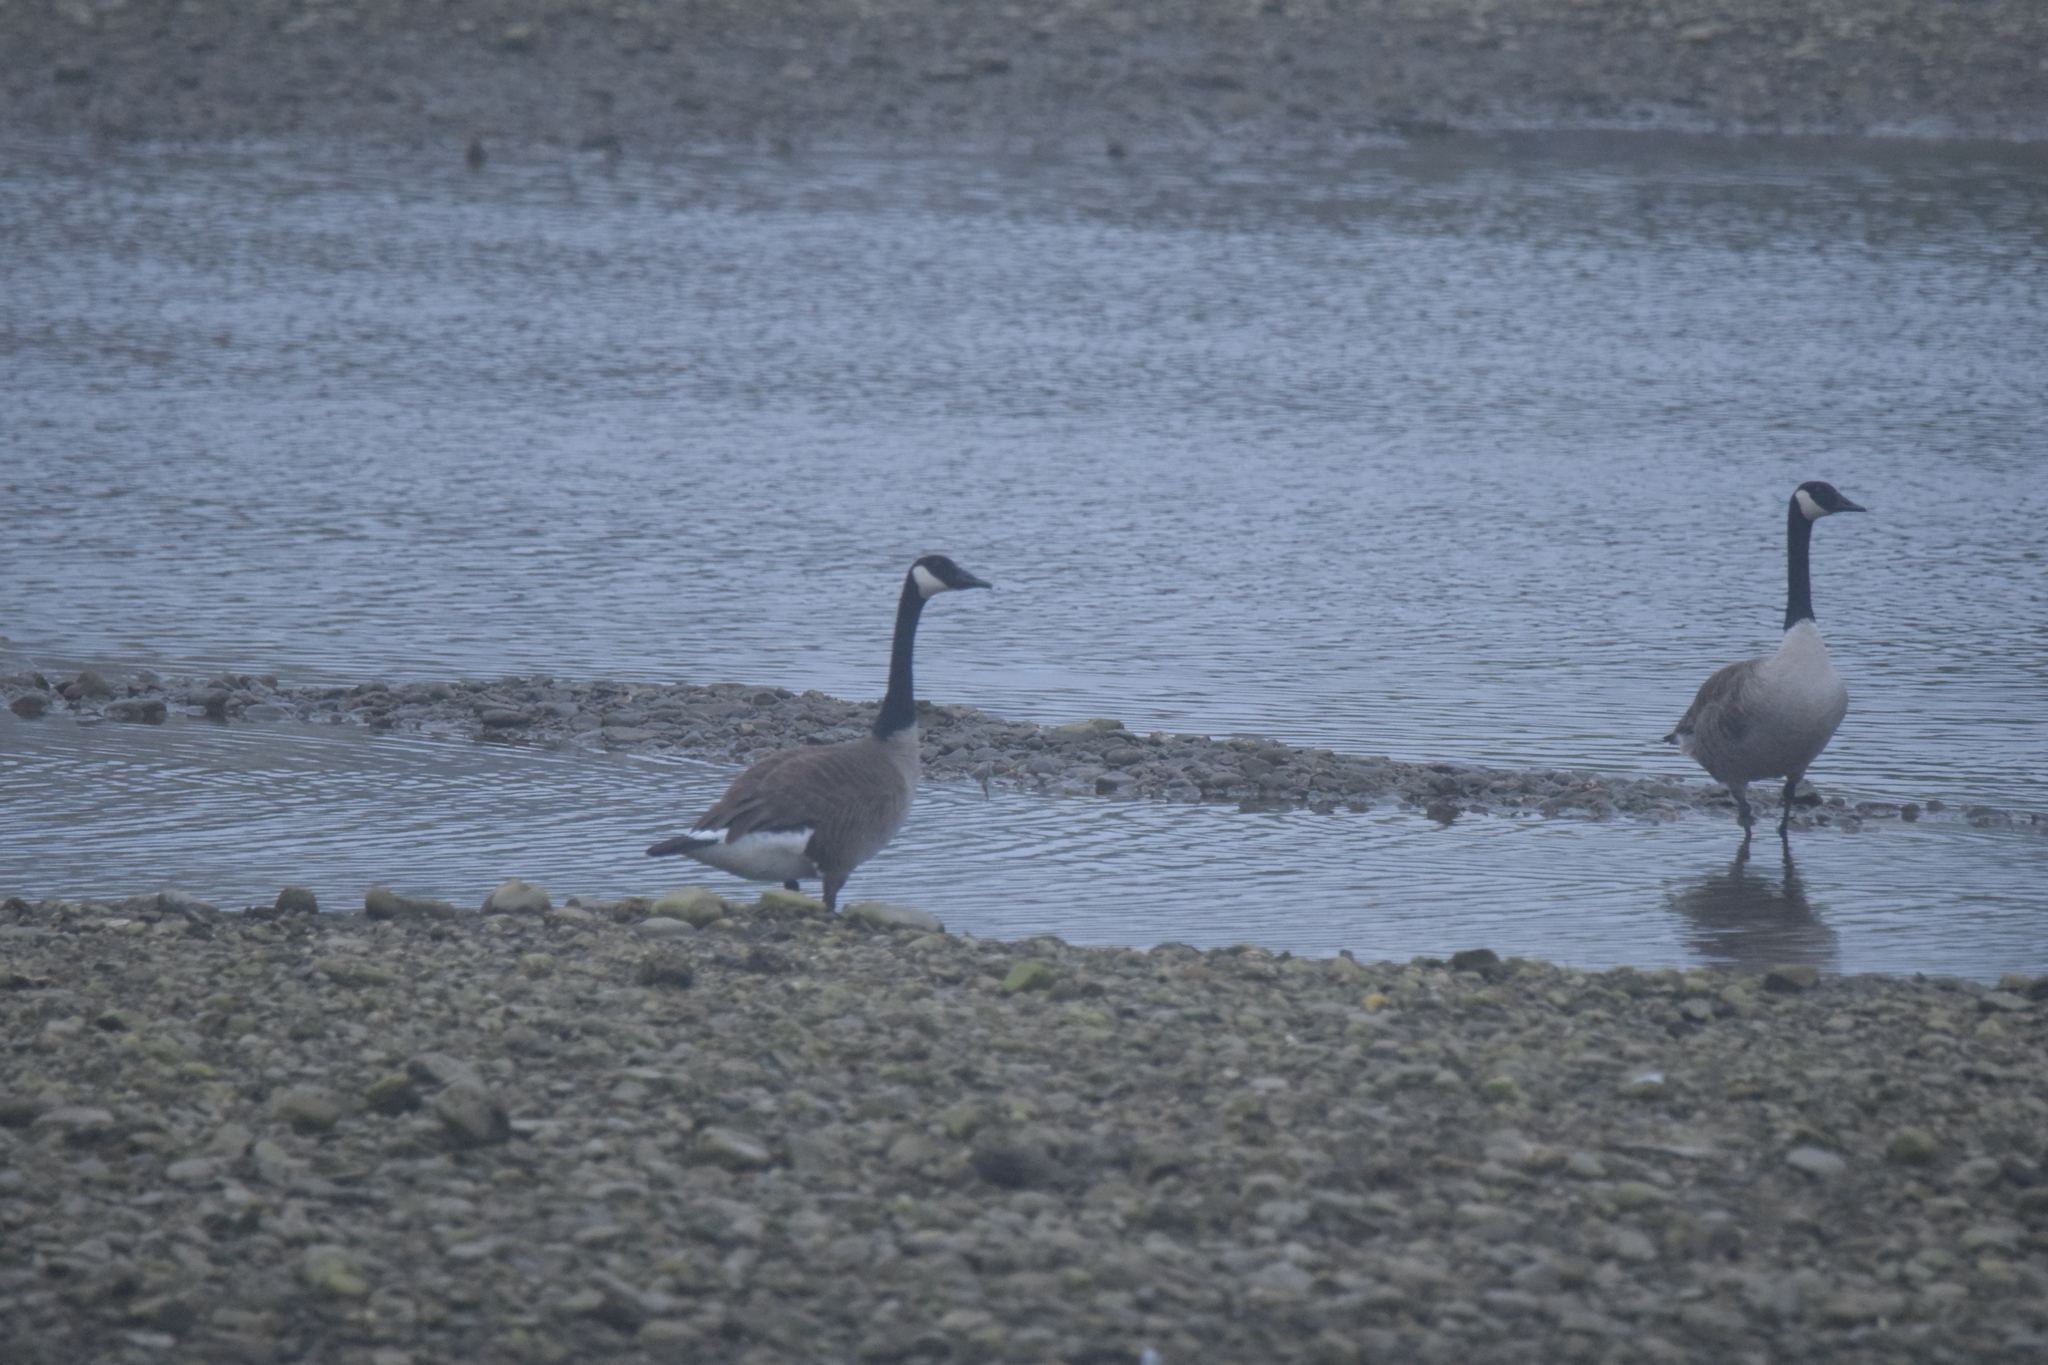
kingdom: Animalia
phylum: Chordata
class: Aves
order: Anseriformes
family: Anatidae
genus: Branta
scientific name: Branta canadensis
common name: Canada goose
